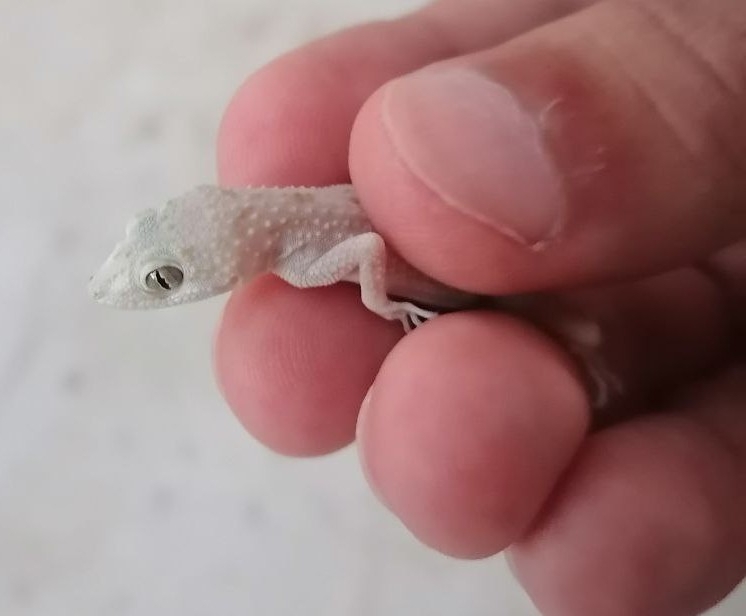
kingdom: Animalia
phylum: Chordata
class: Squamata
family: Gekkonidae
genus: Cyrtopodion
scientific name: Cyrtopodion scabrum
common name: Rough-tailed gecko
